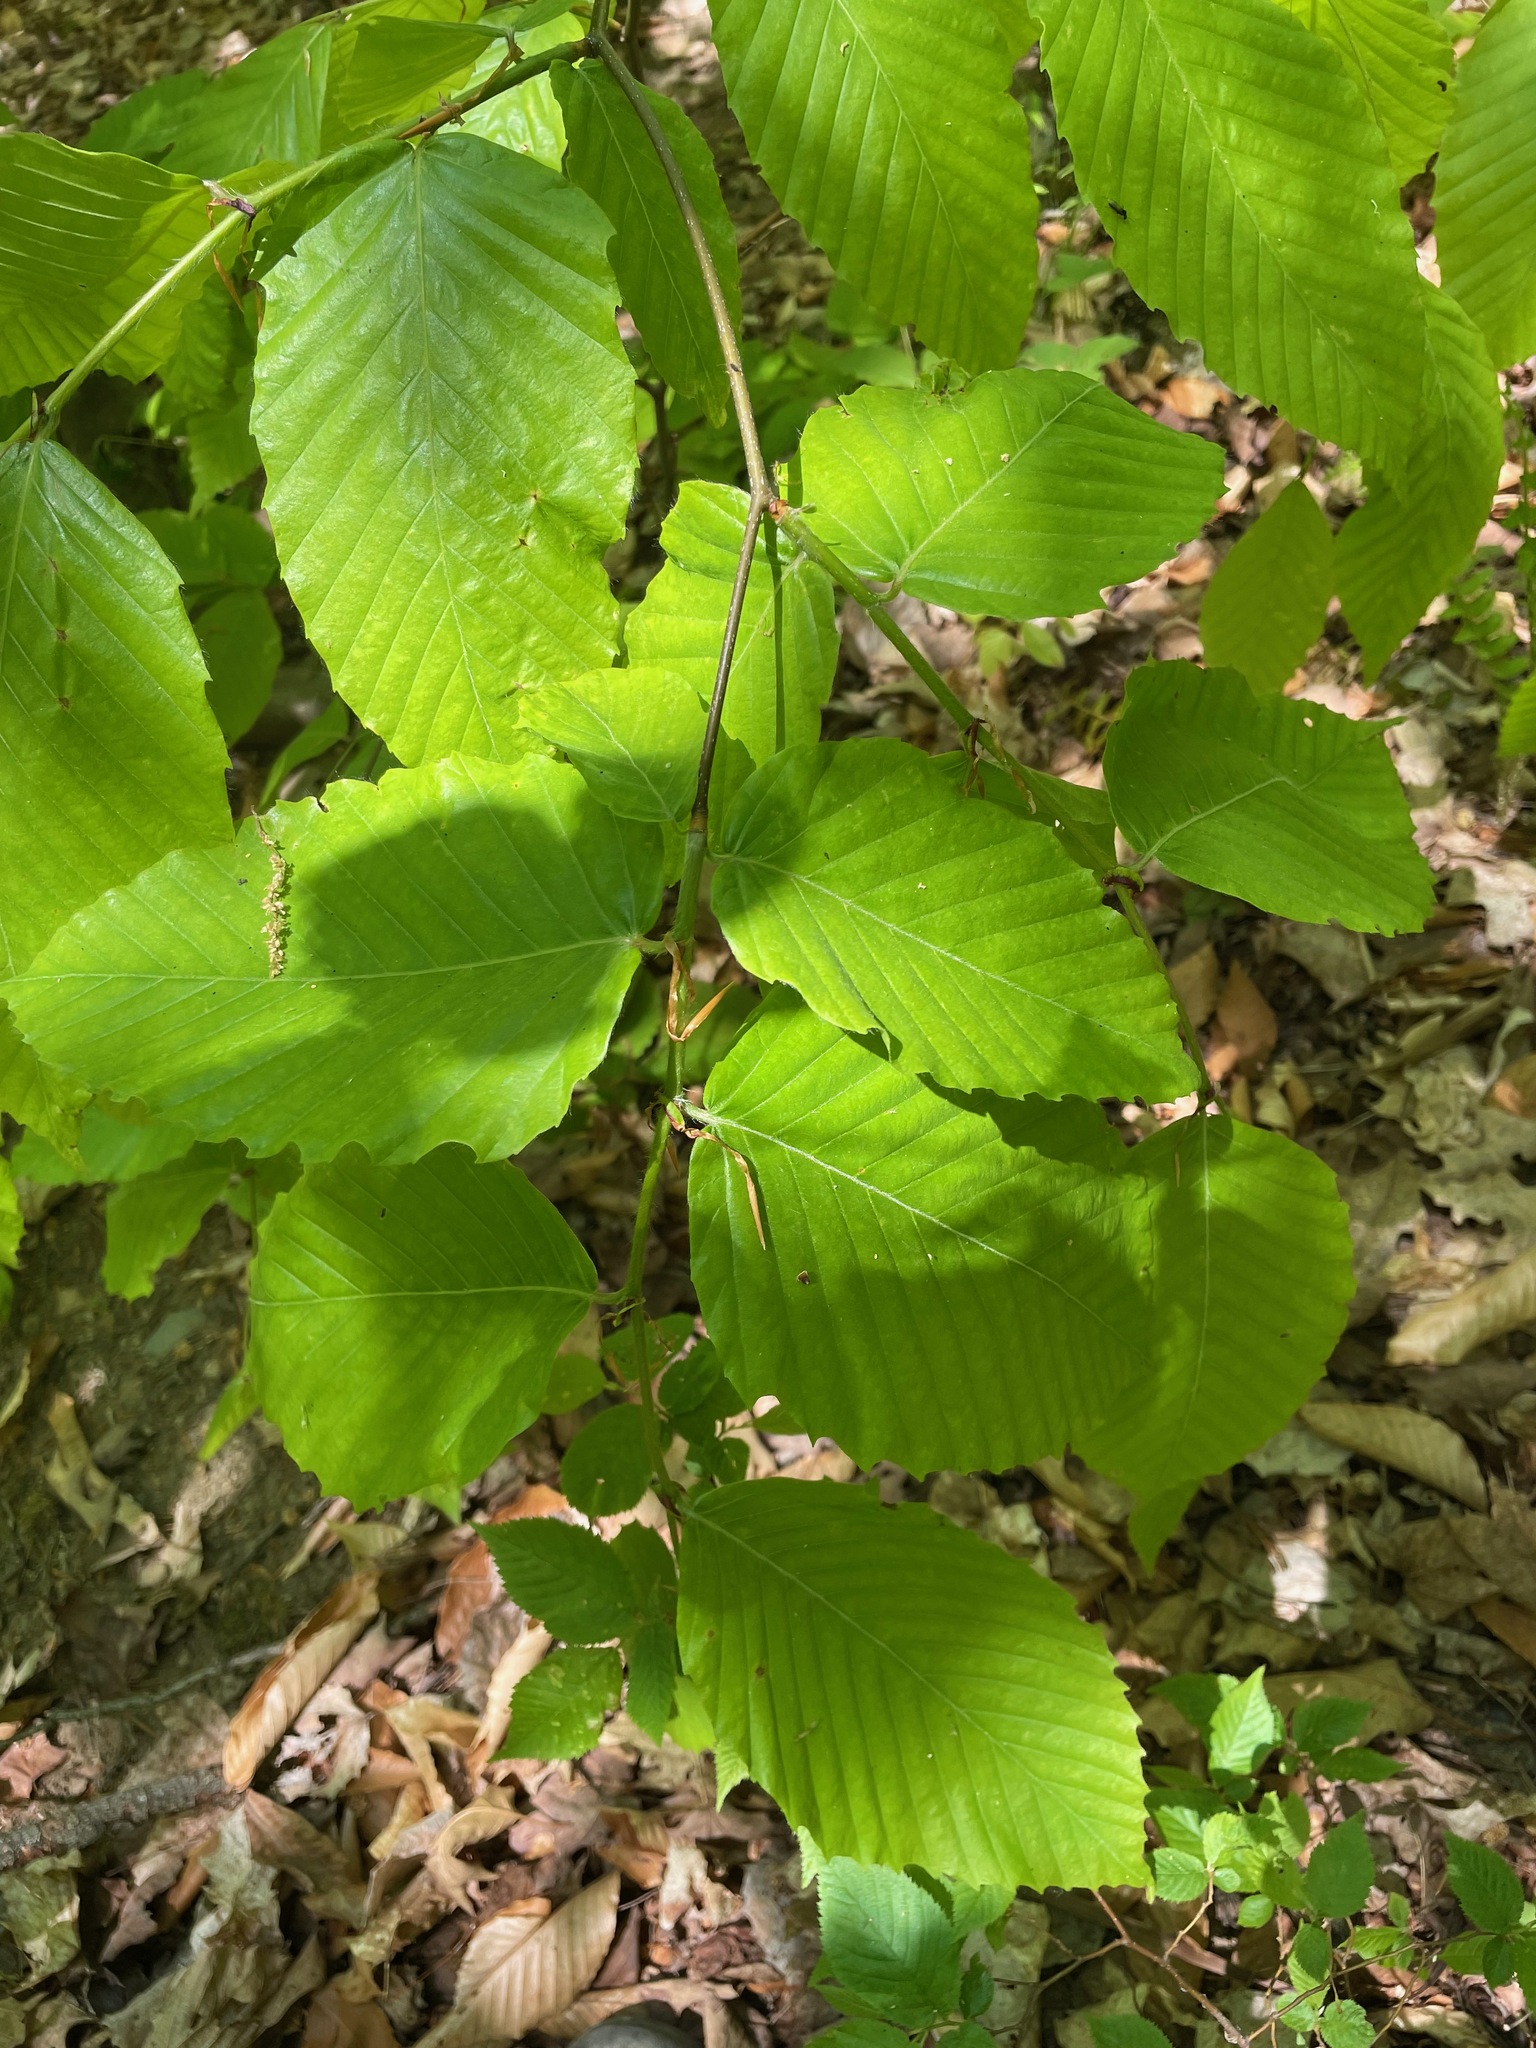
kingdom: Plantae
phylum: Tracheophyta
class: Magnoliopsida
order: Fagales
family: Fagaceae
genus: Fagus
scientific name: Fagus grandifolia
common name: American beech
